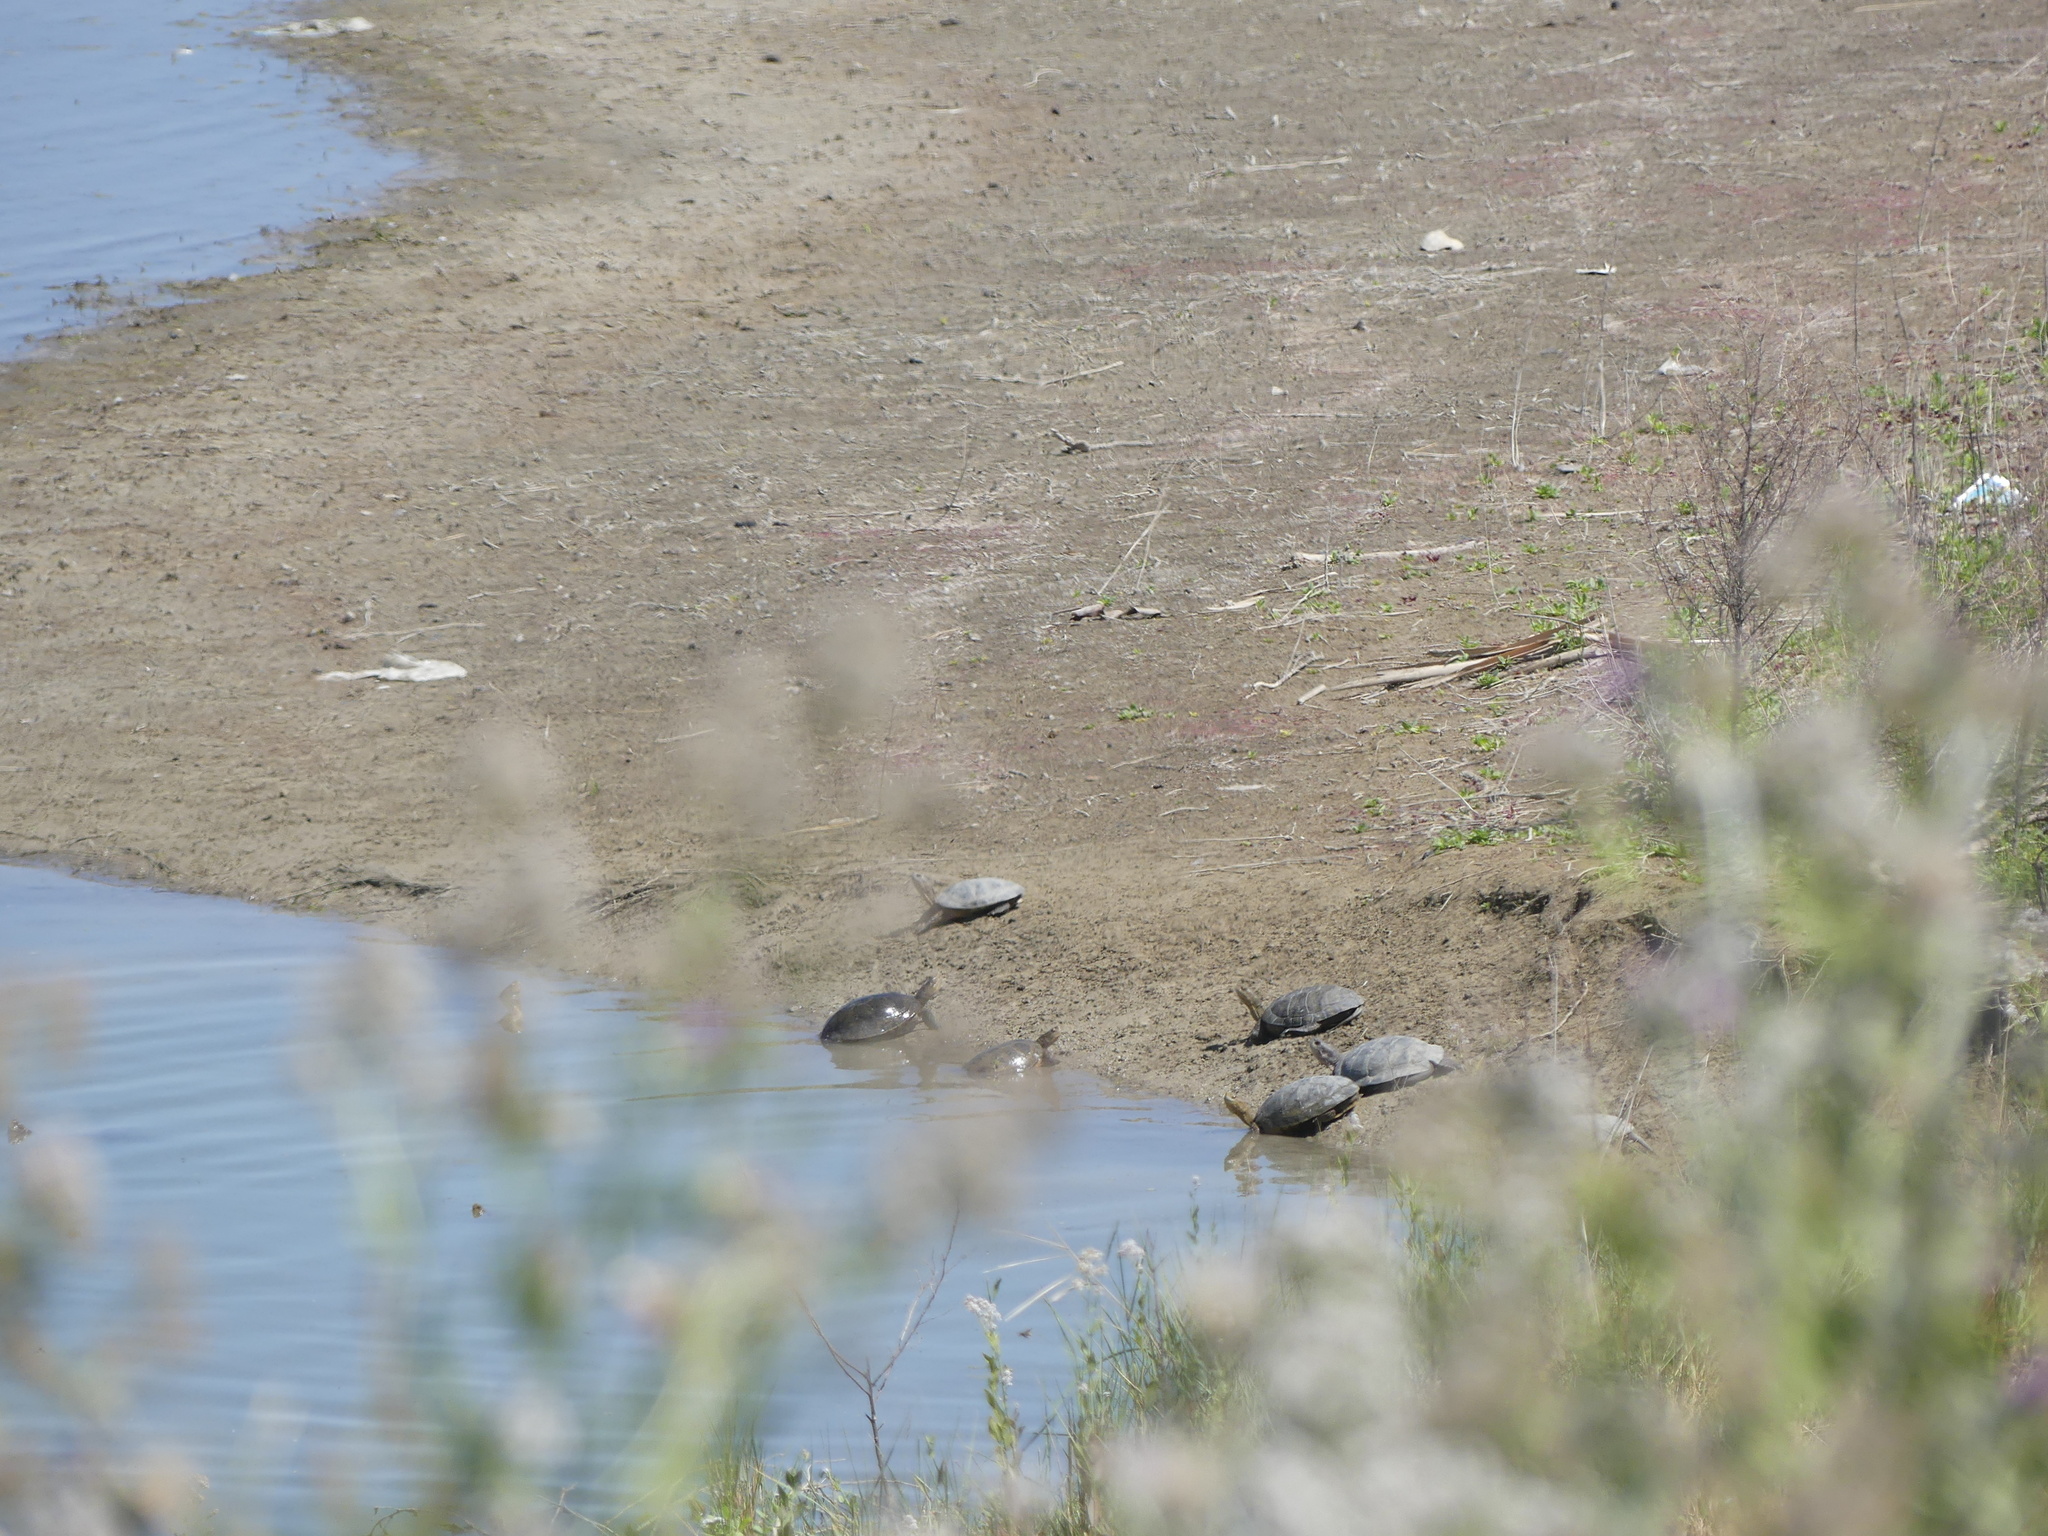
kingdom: Animalia
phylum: Chordata
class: Testudines
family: Emydidae
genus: Actinemys
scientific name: Actinemys marmorata
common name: Western pond turtle
